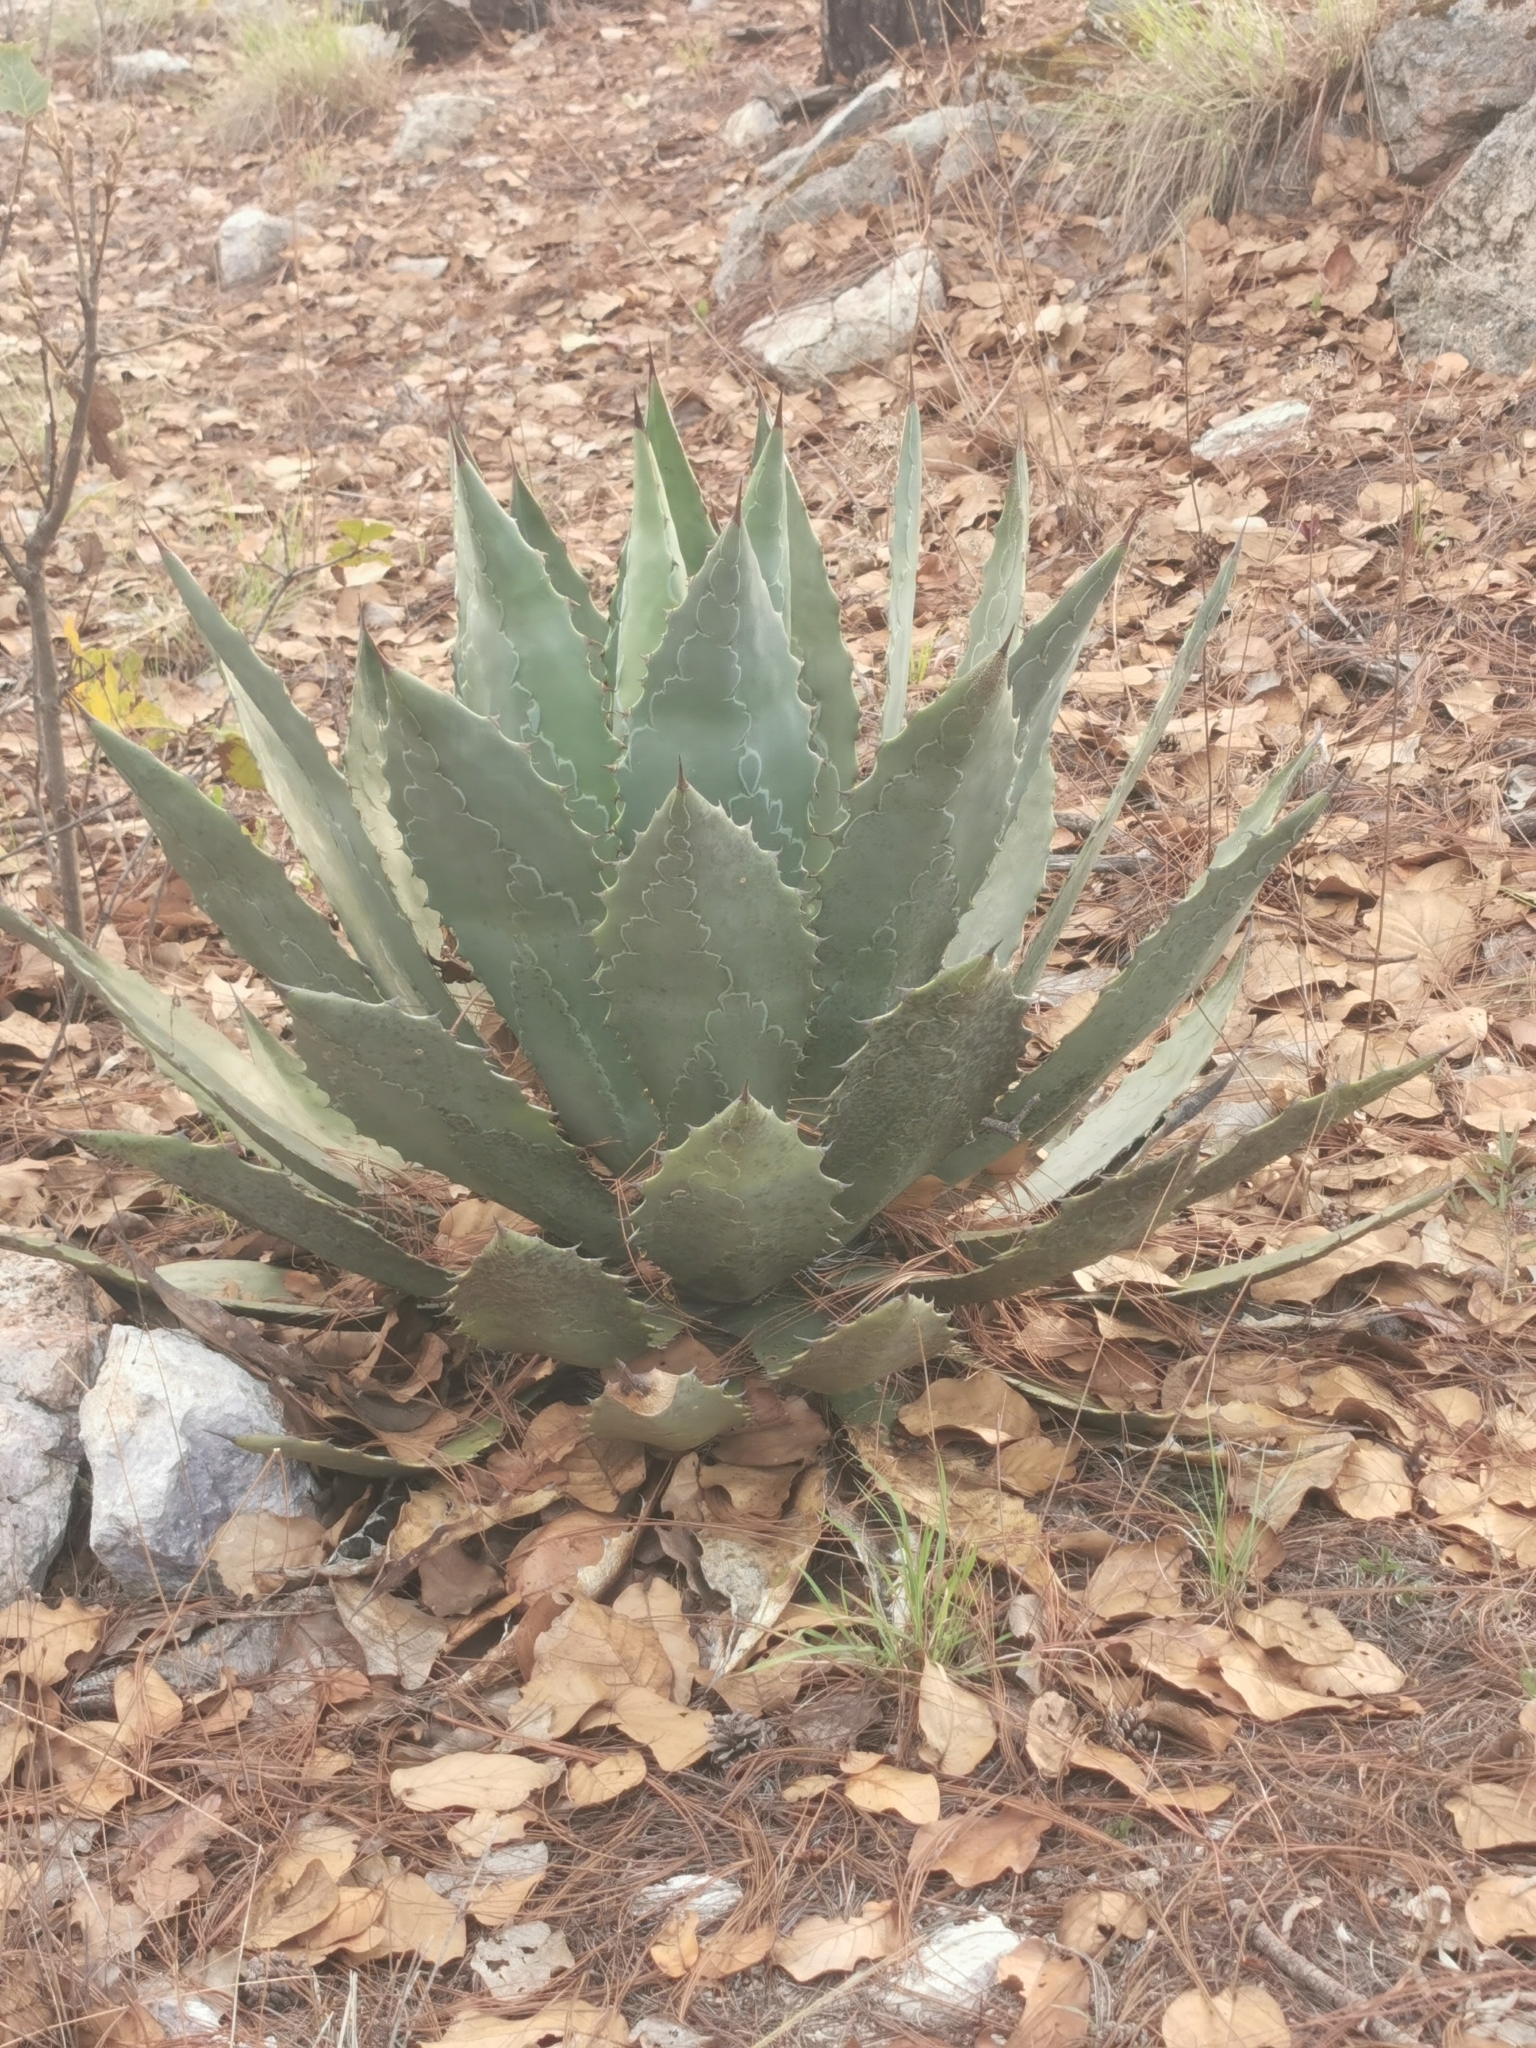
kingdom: Plantae
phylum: Tracheophyta
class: Liliopsida
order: Asparagales
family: Asparagaceae
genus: Agave
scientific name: Agave wocomahi
